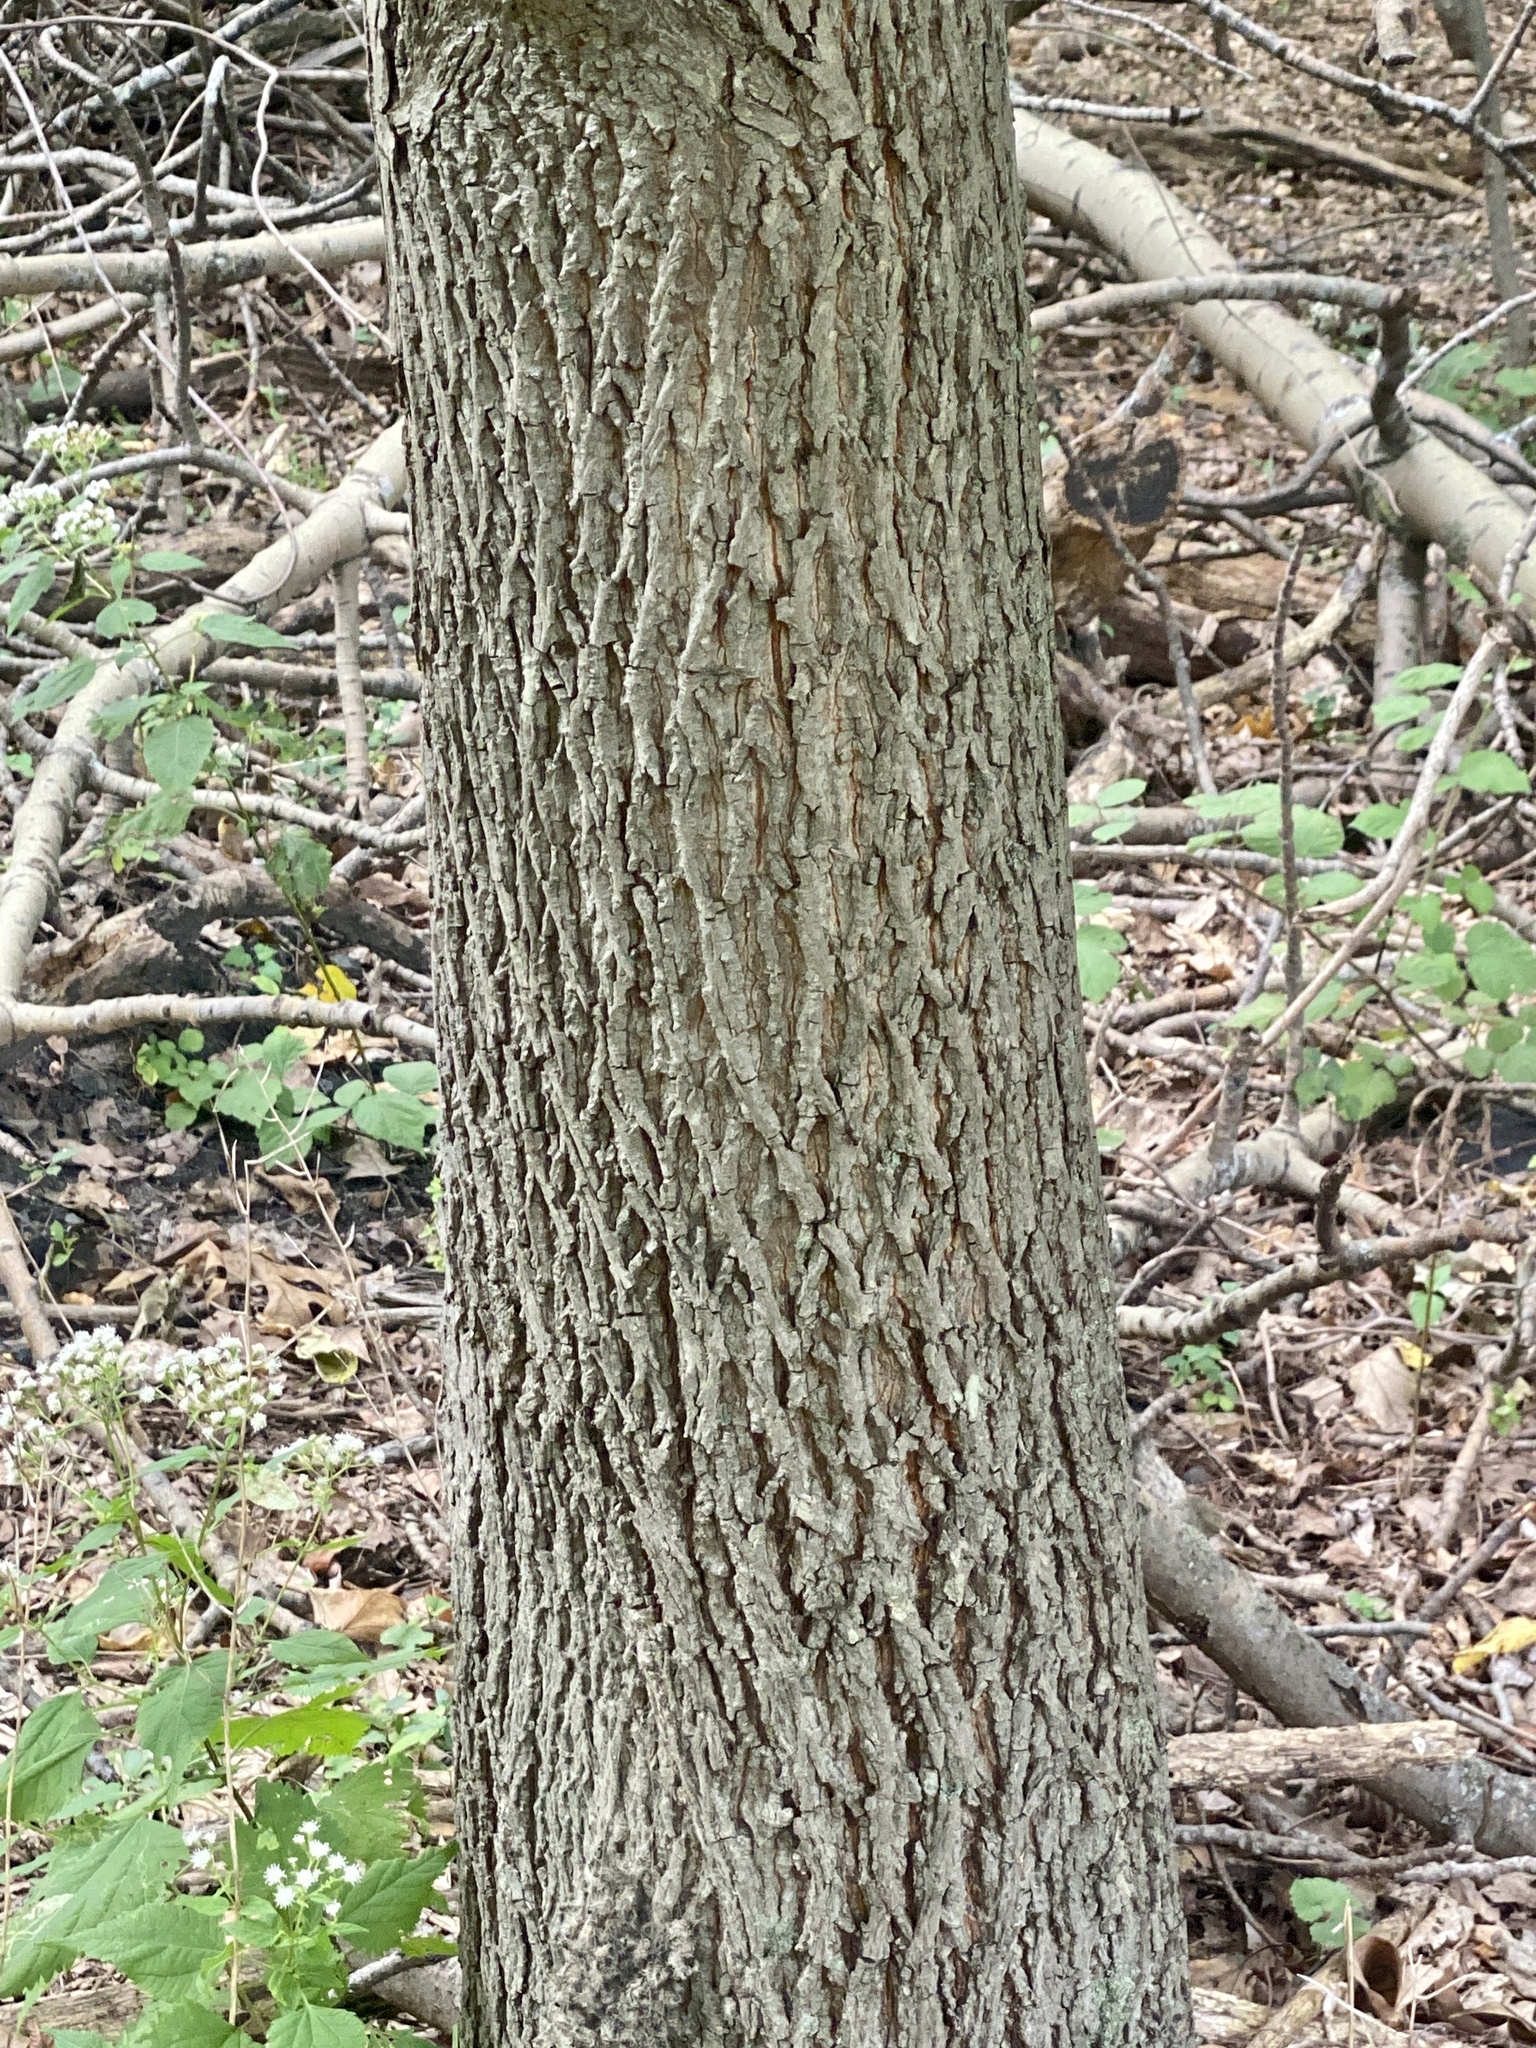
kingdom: Plantae
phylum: Tracheophyta
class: Magnoliopsida
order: Fagales
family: Juglandaceae
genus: Carya
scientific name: Carya alba
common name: Mockernut hickory
